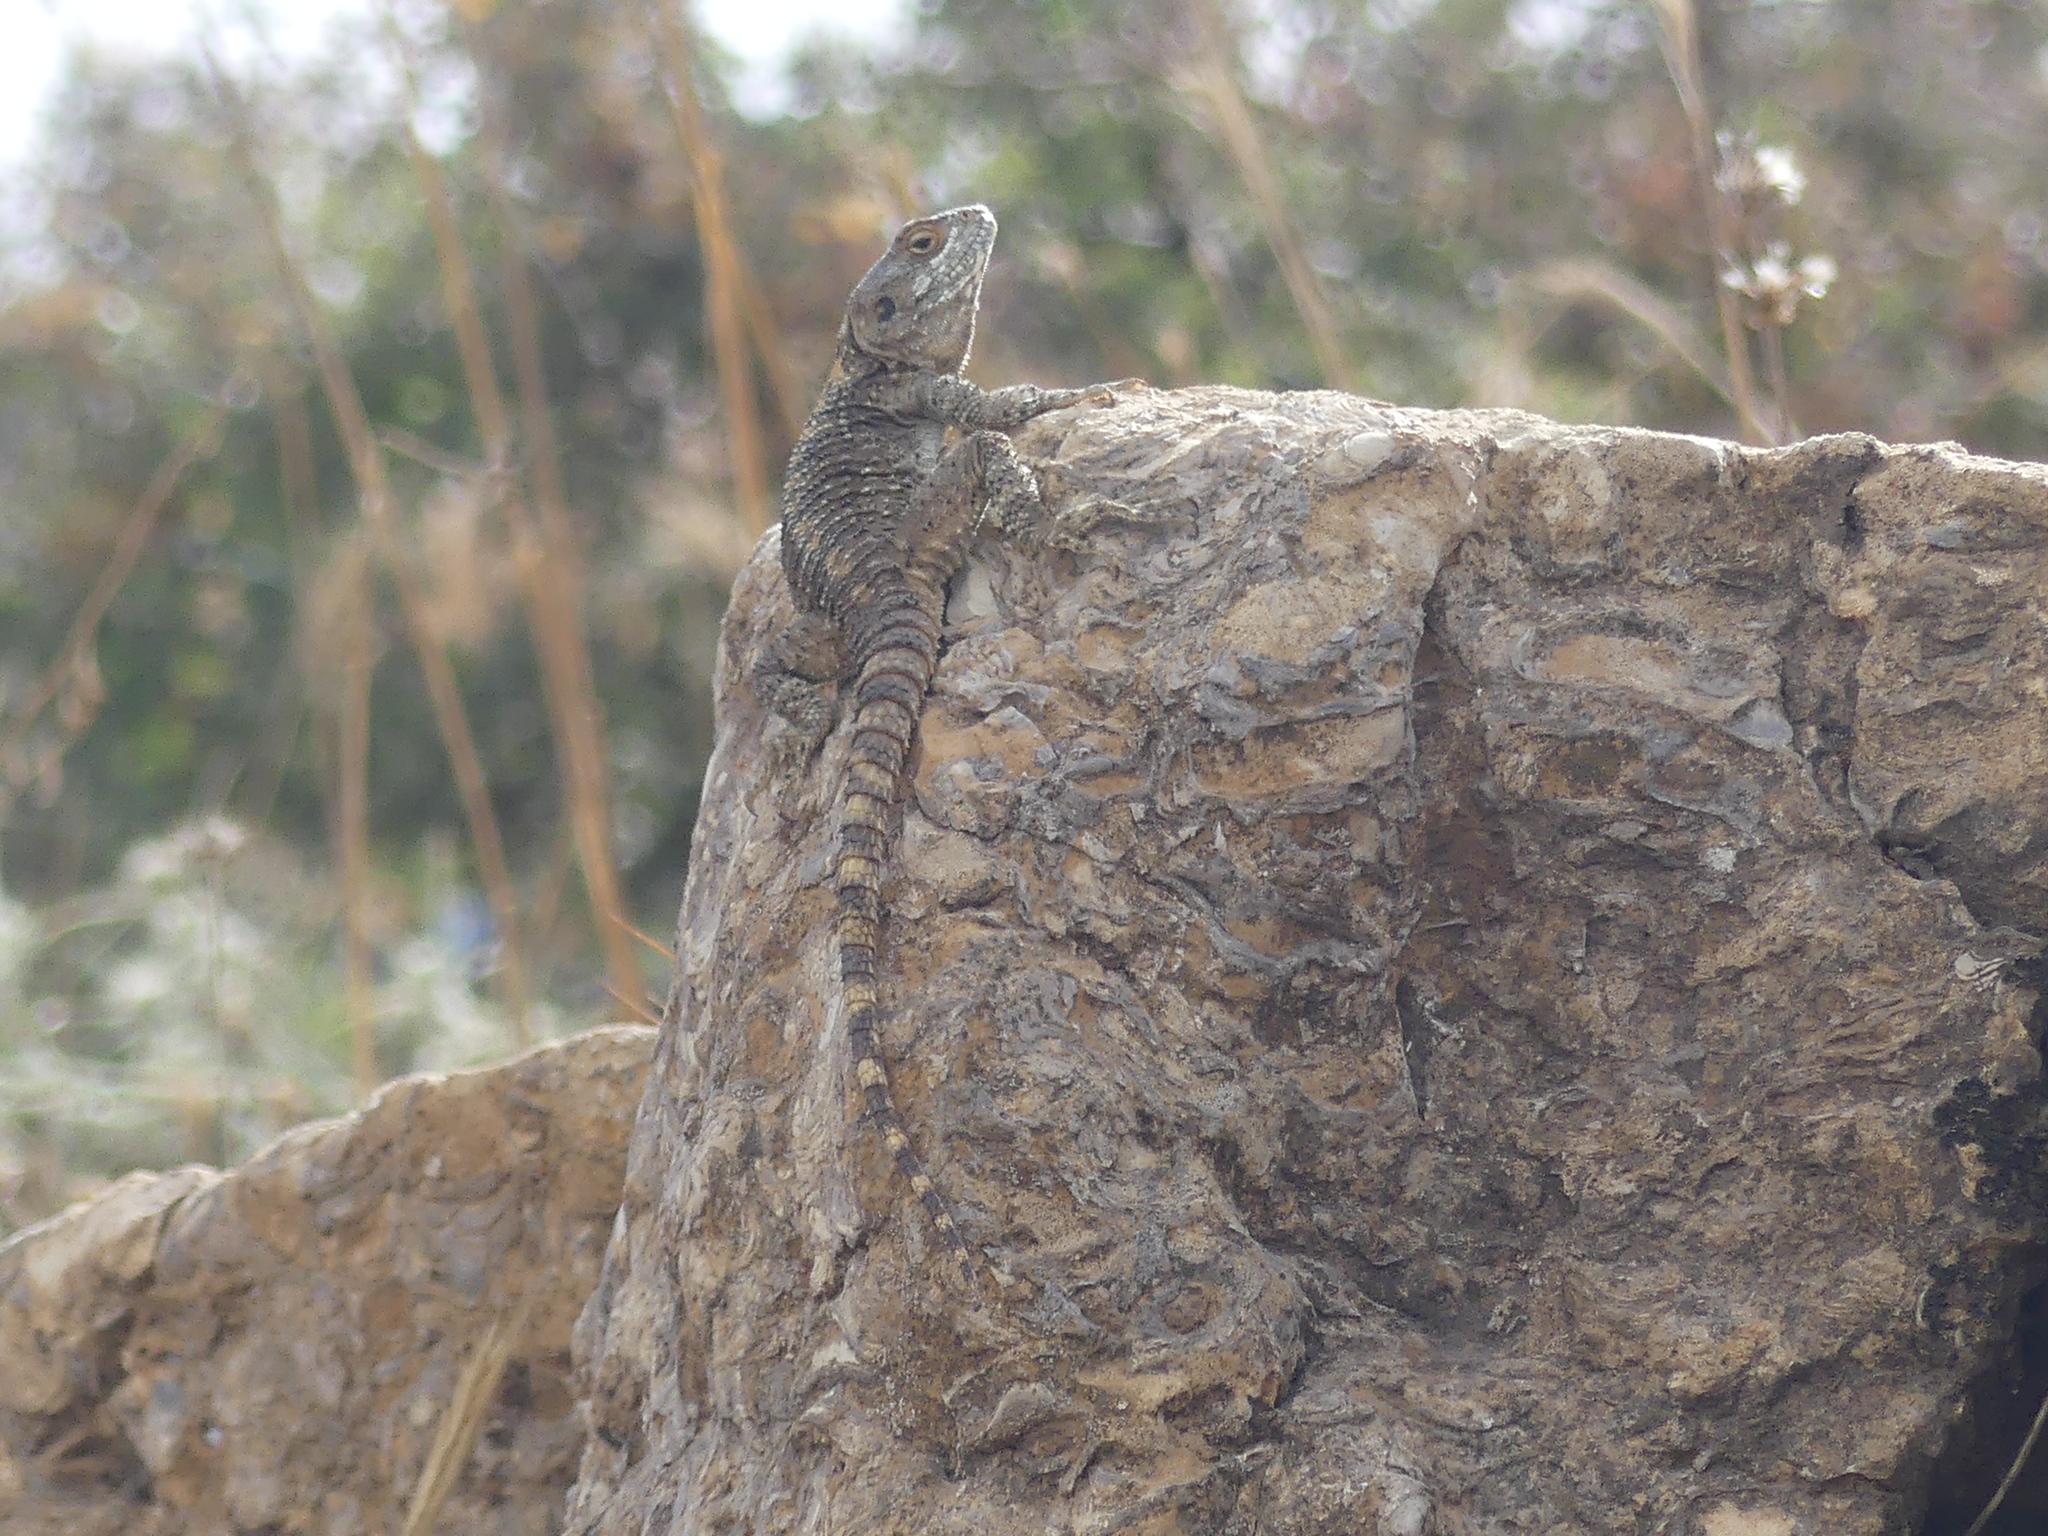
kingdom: Animalia
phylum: Chordata
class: Squamata
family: Agamidae
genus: Laudakia
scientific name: Laudakia vulgaris
